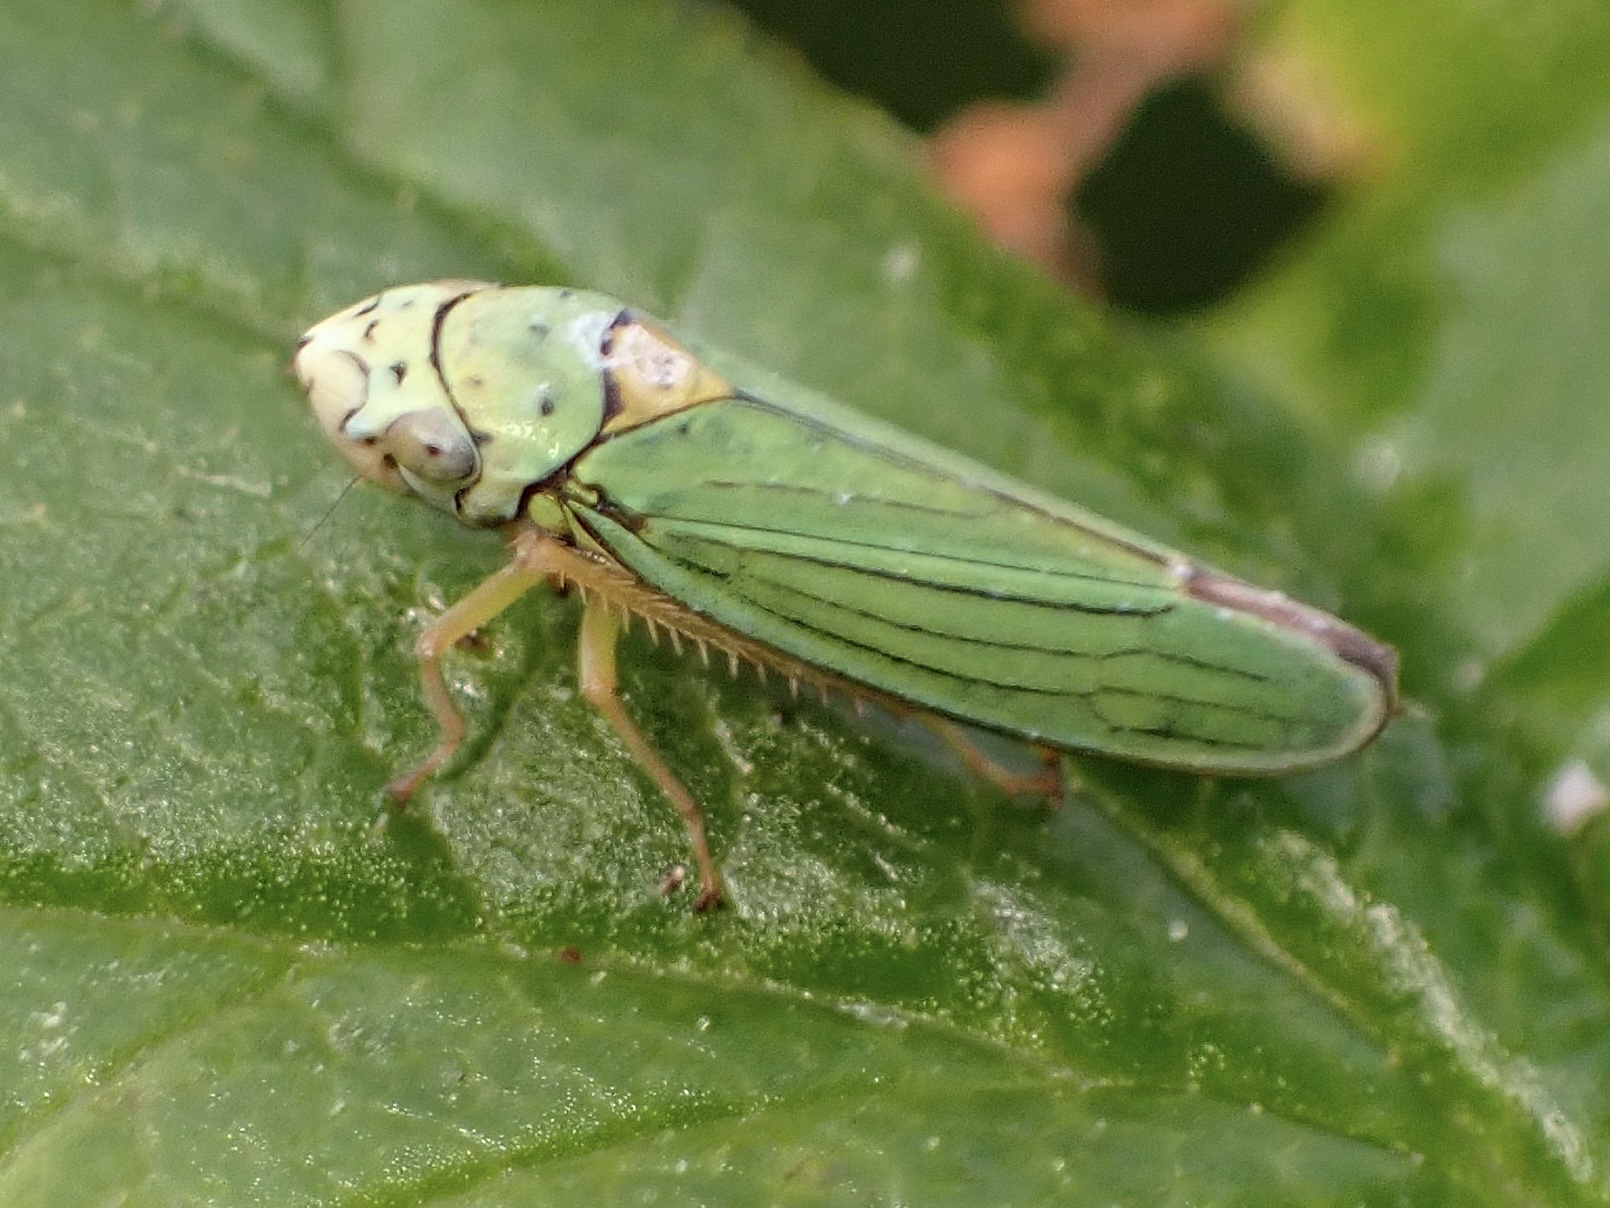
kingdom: Animalia
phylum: Arthropoda
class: Insecta
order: Hemiptera
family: Cicadellidae
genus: Graphocephala
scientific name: Graphocephala atropunctata
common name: Blue-green sharpshooter
